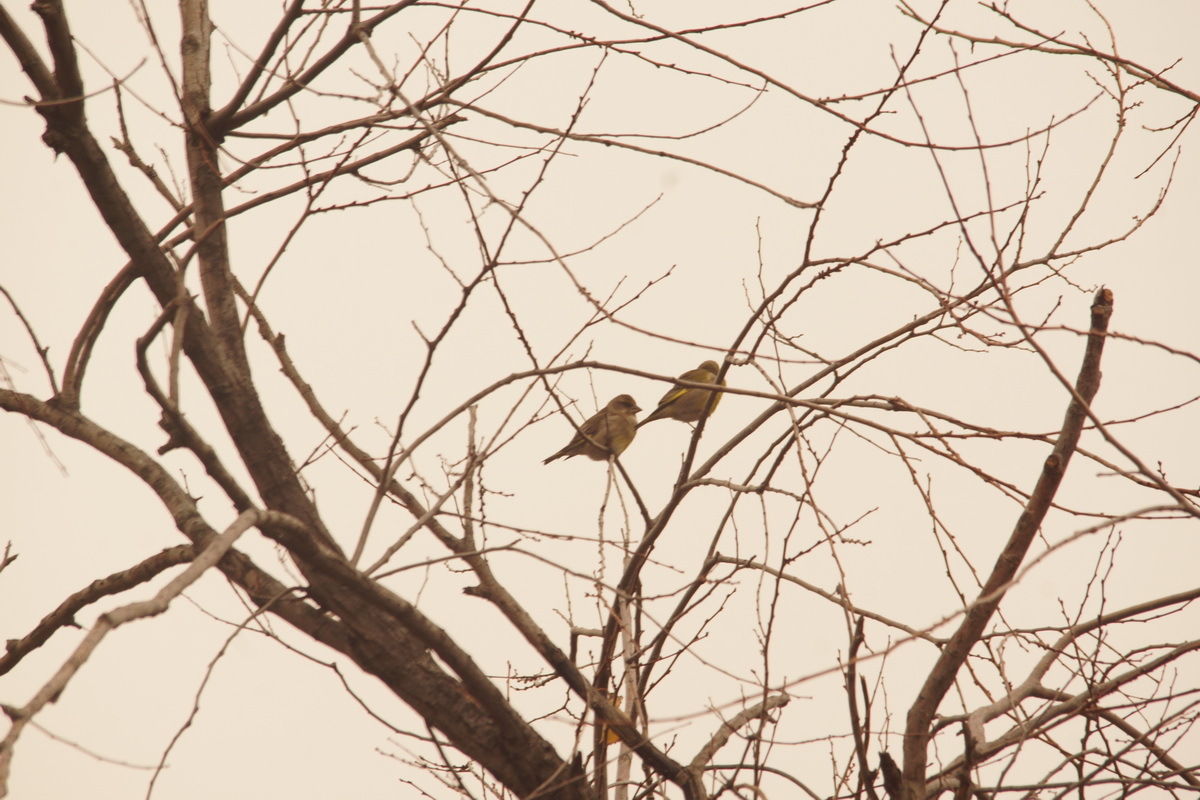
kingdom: Plantae
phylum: Tracheophyta
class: Liliopsida
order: Poales
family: Poaceae
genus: Chloris
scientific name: Chloris chloris
